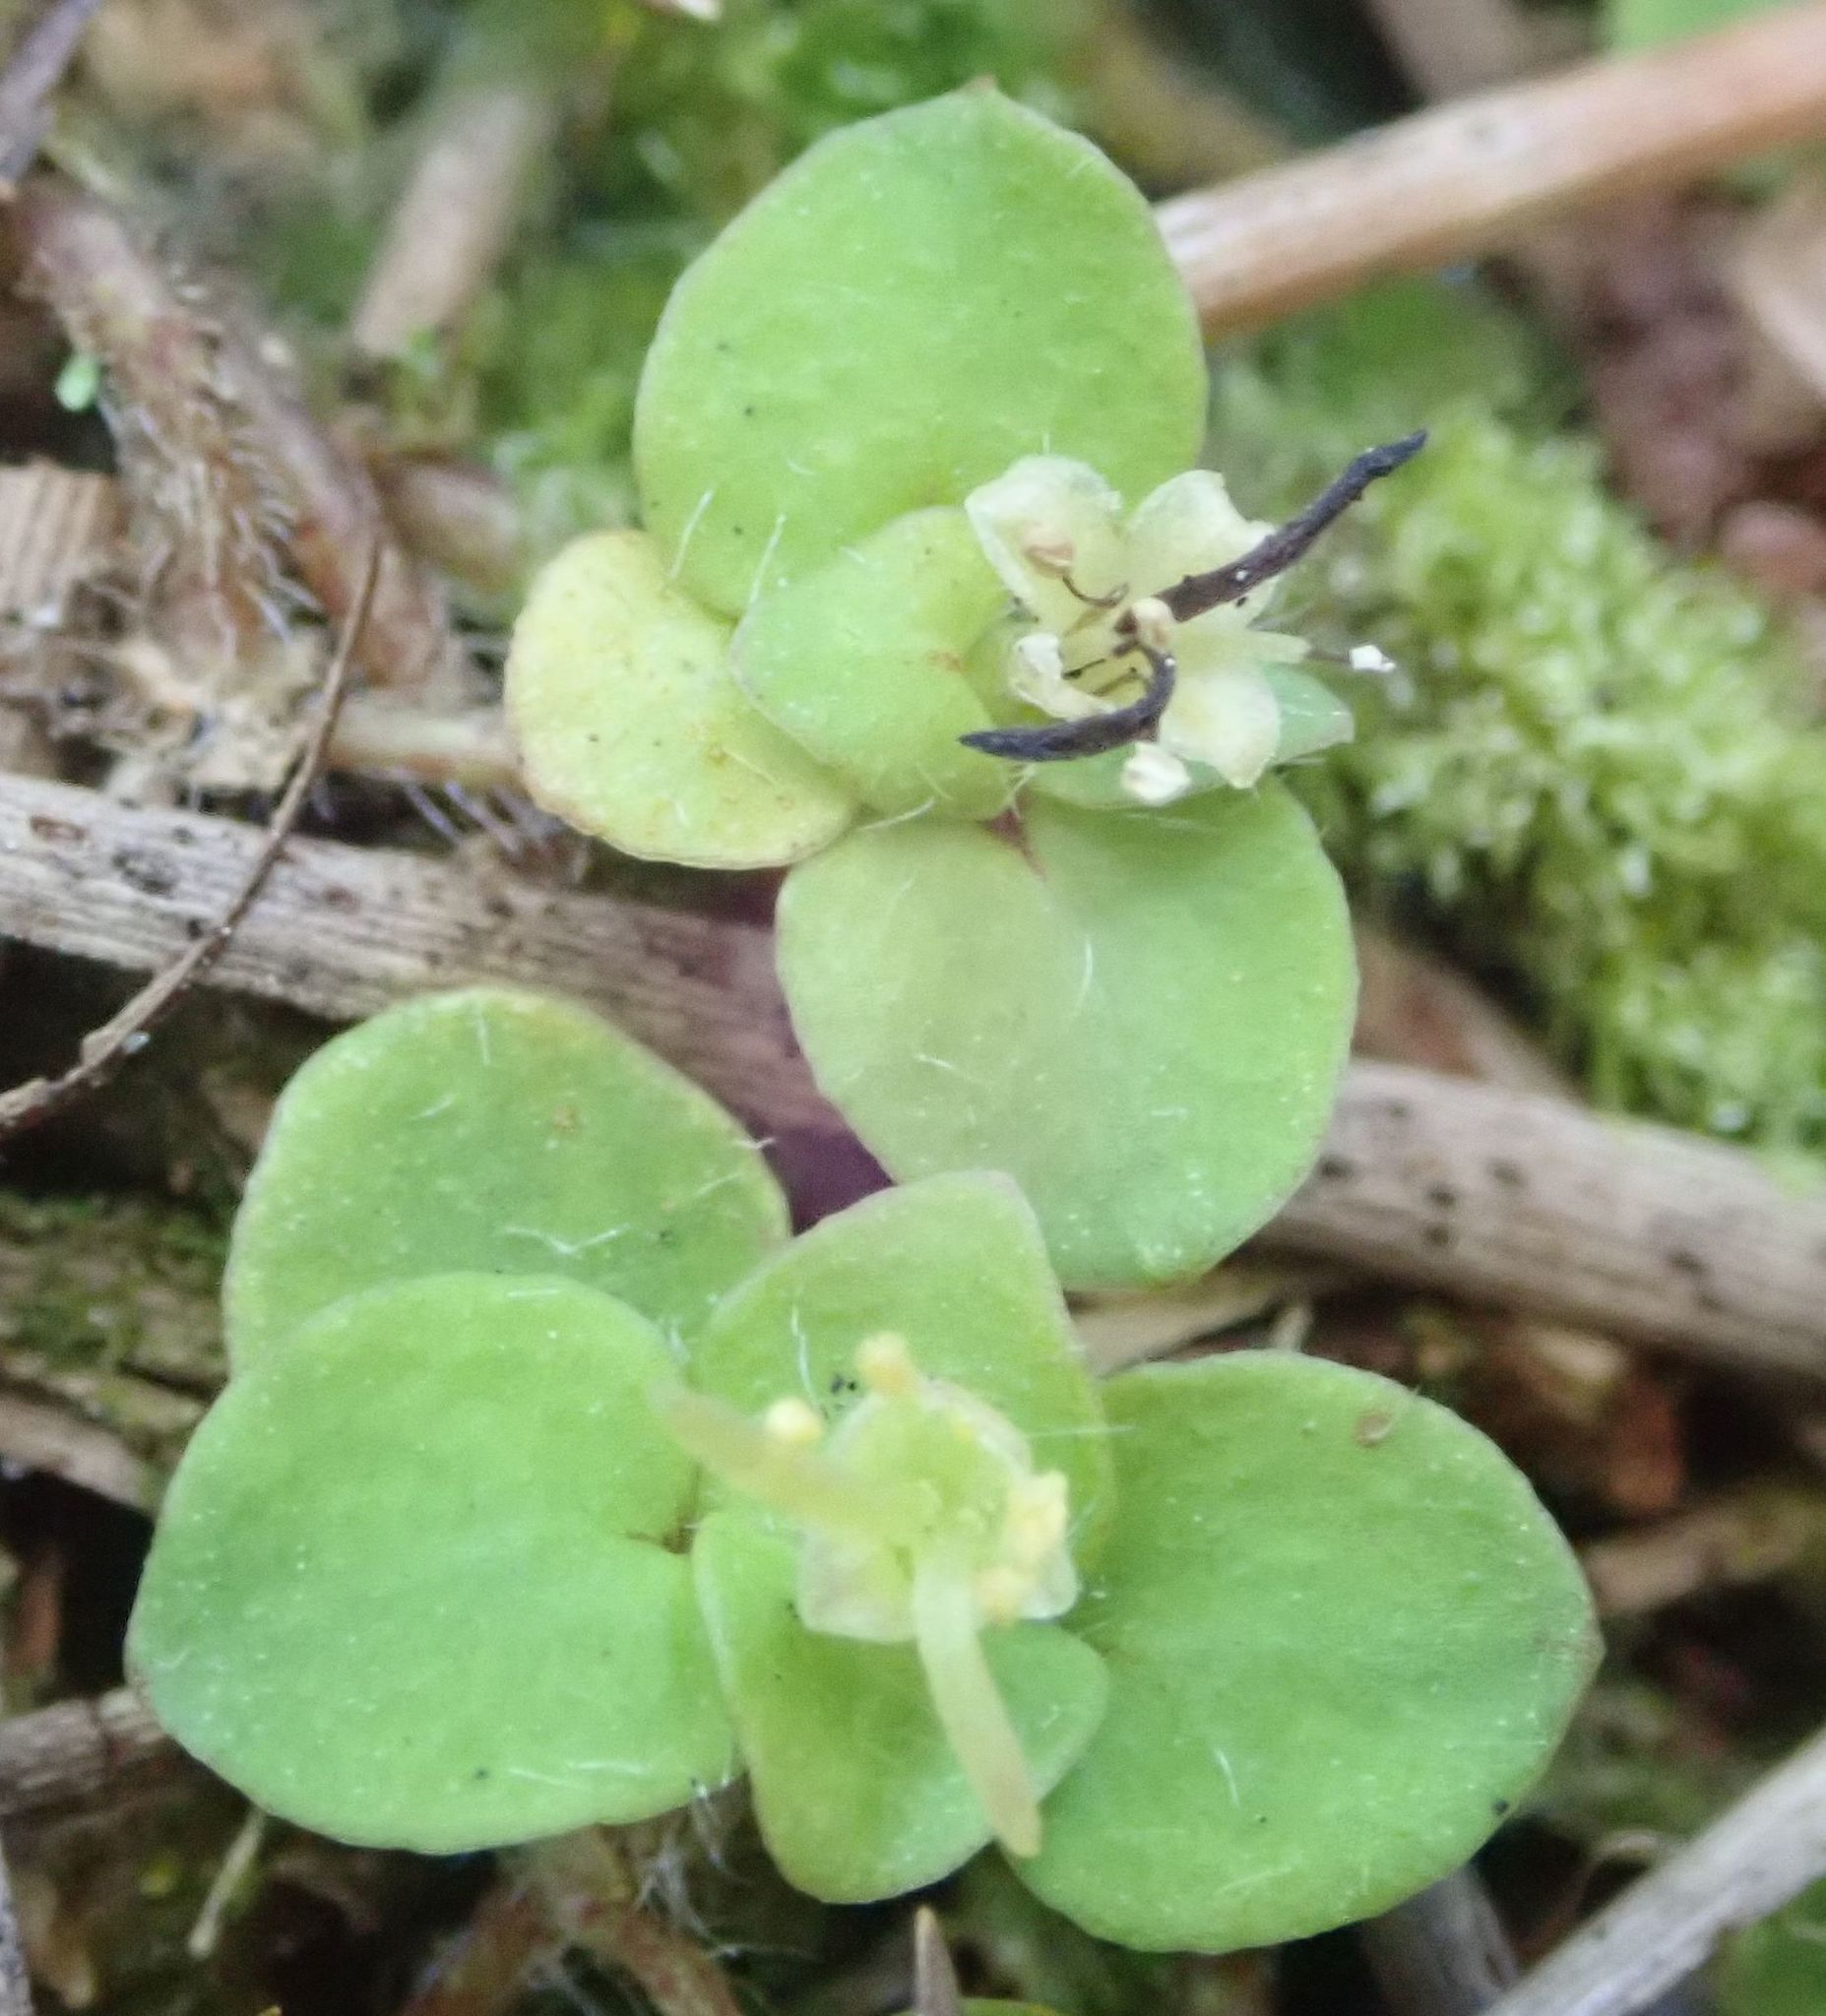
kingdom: Plantae
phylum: Tracheophyta
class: Magnoliopsida
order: Gentianales
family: Rubiaceae
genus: Nertera
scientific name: Nertera villosa
